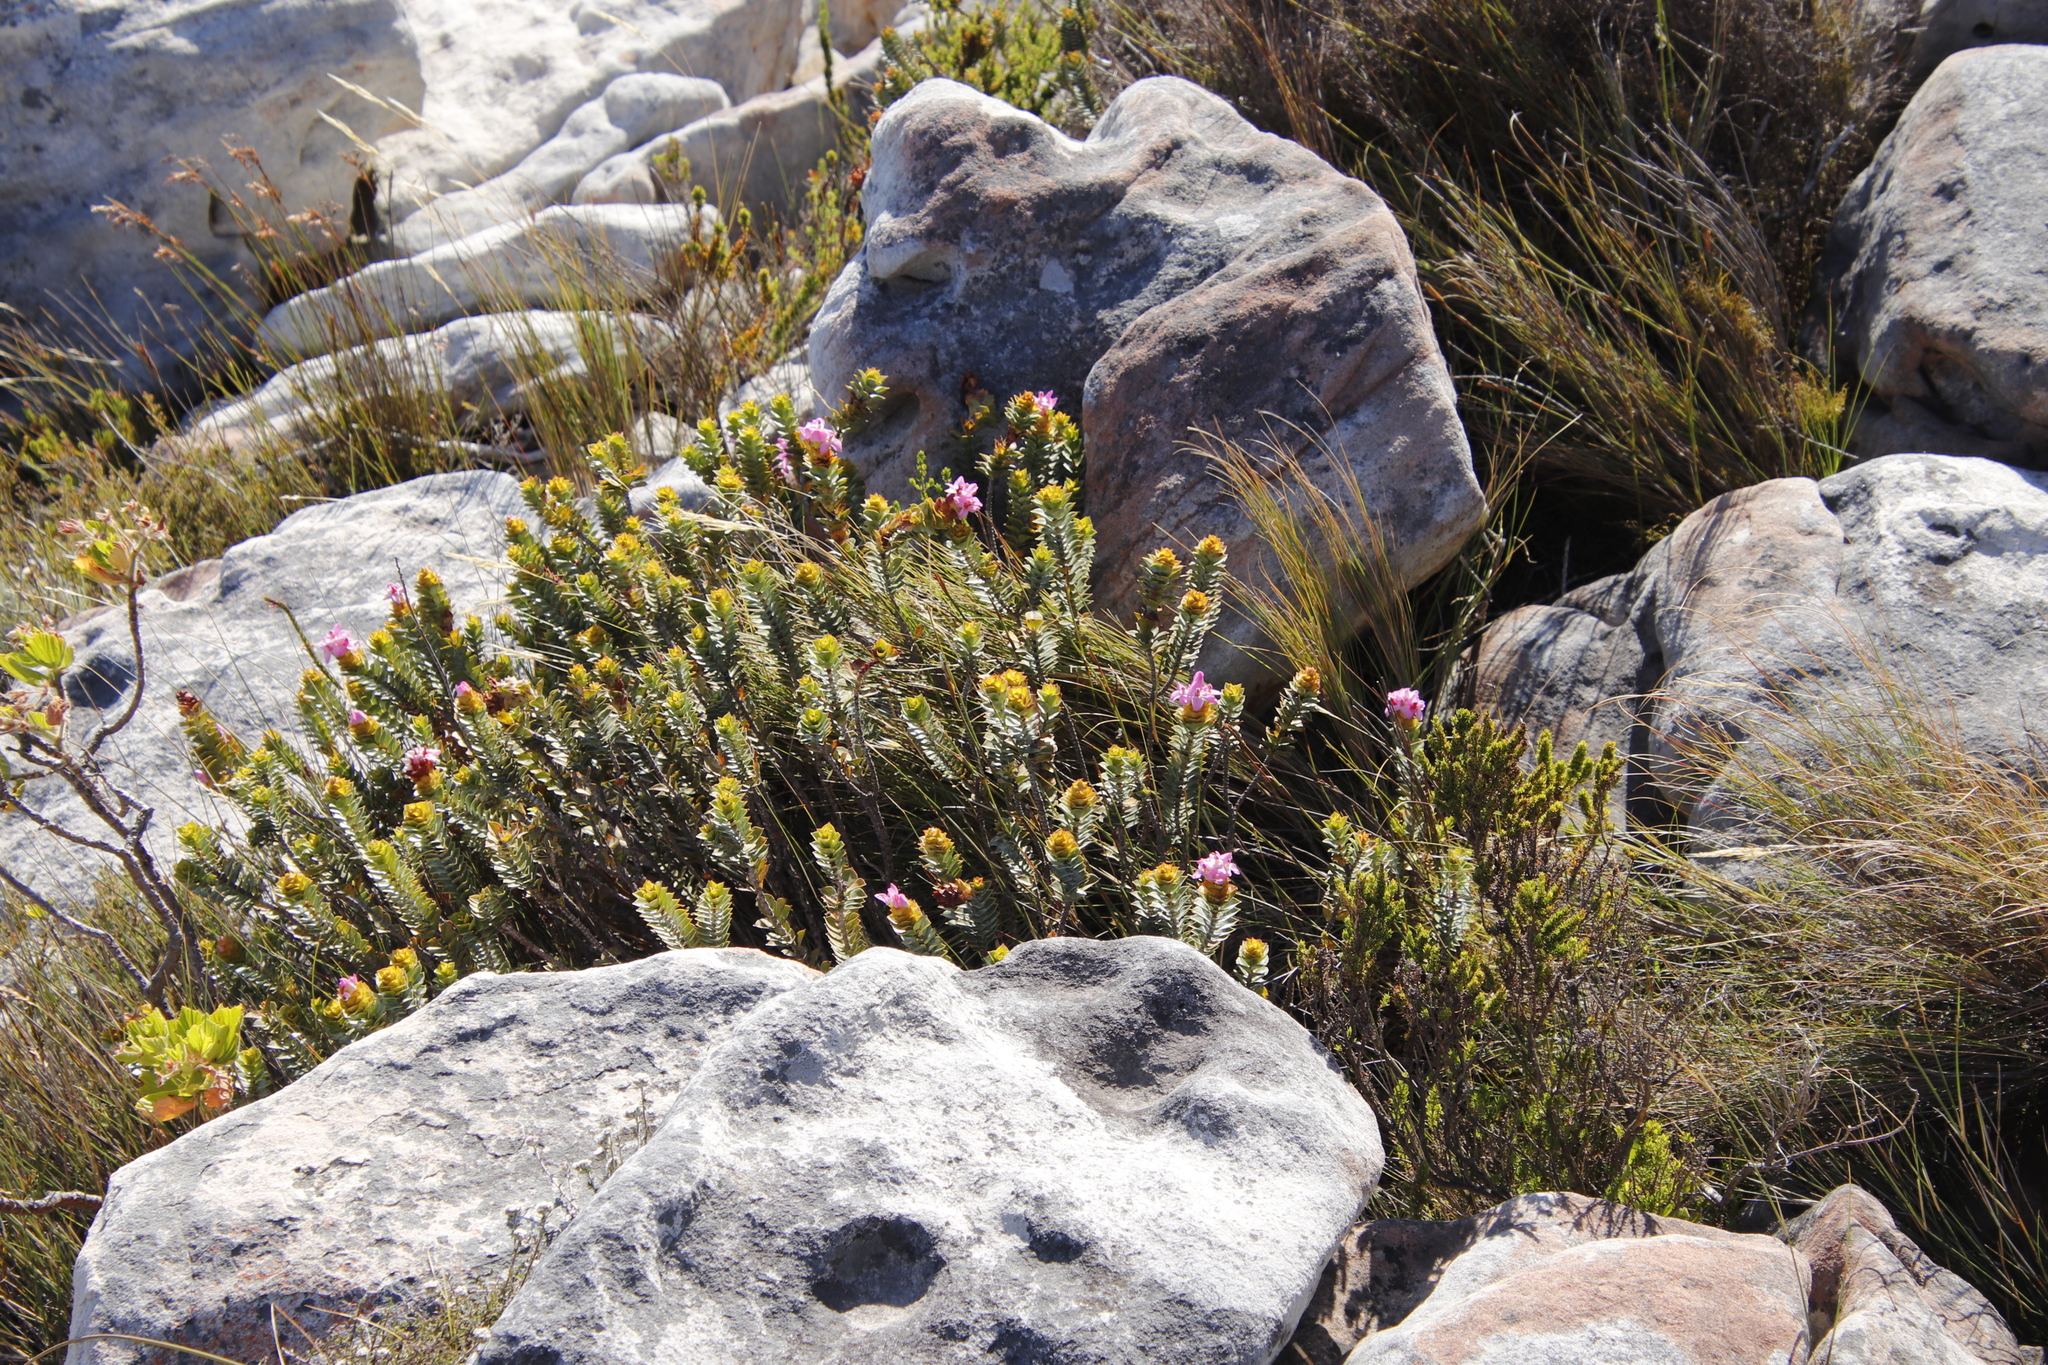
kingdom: Plantae
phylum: Tracheophyta
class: Magnoliopsida
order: Myrtales
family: Penaeaceae
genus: Saltera
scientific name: Saltera sarcocolla
